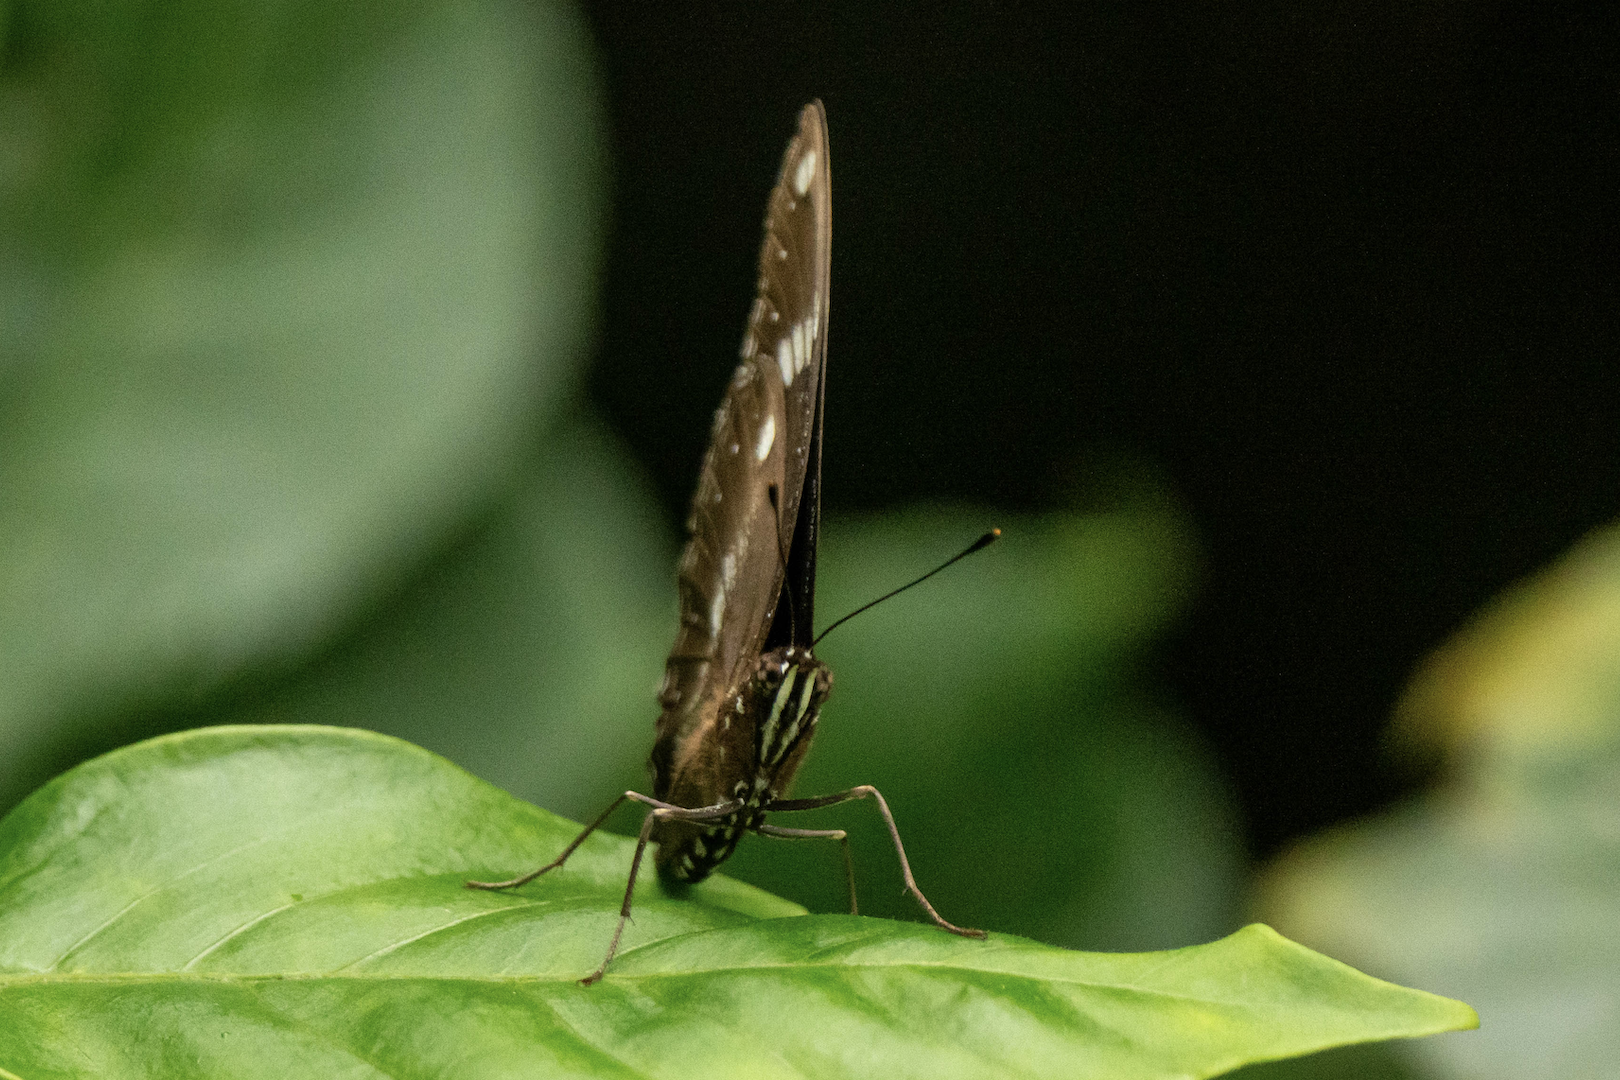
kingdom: Animalia
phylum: Arthropoda
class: Insecta
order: Lepidoptera
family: Nymphalidae
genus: Hypolimnas
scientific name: Hypolimnas bolina
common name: Great eggfly
